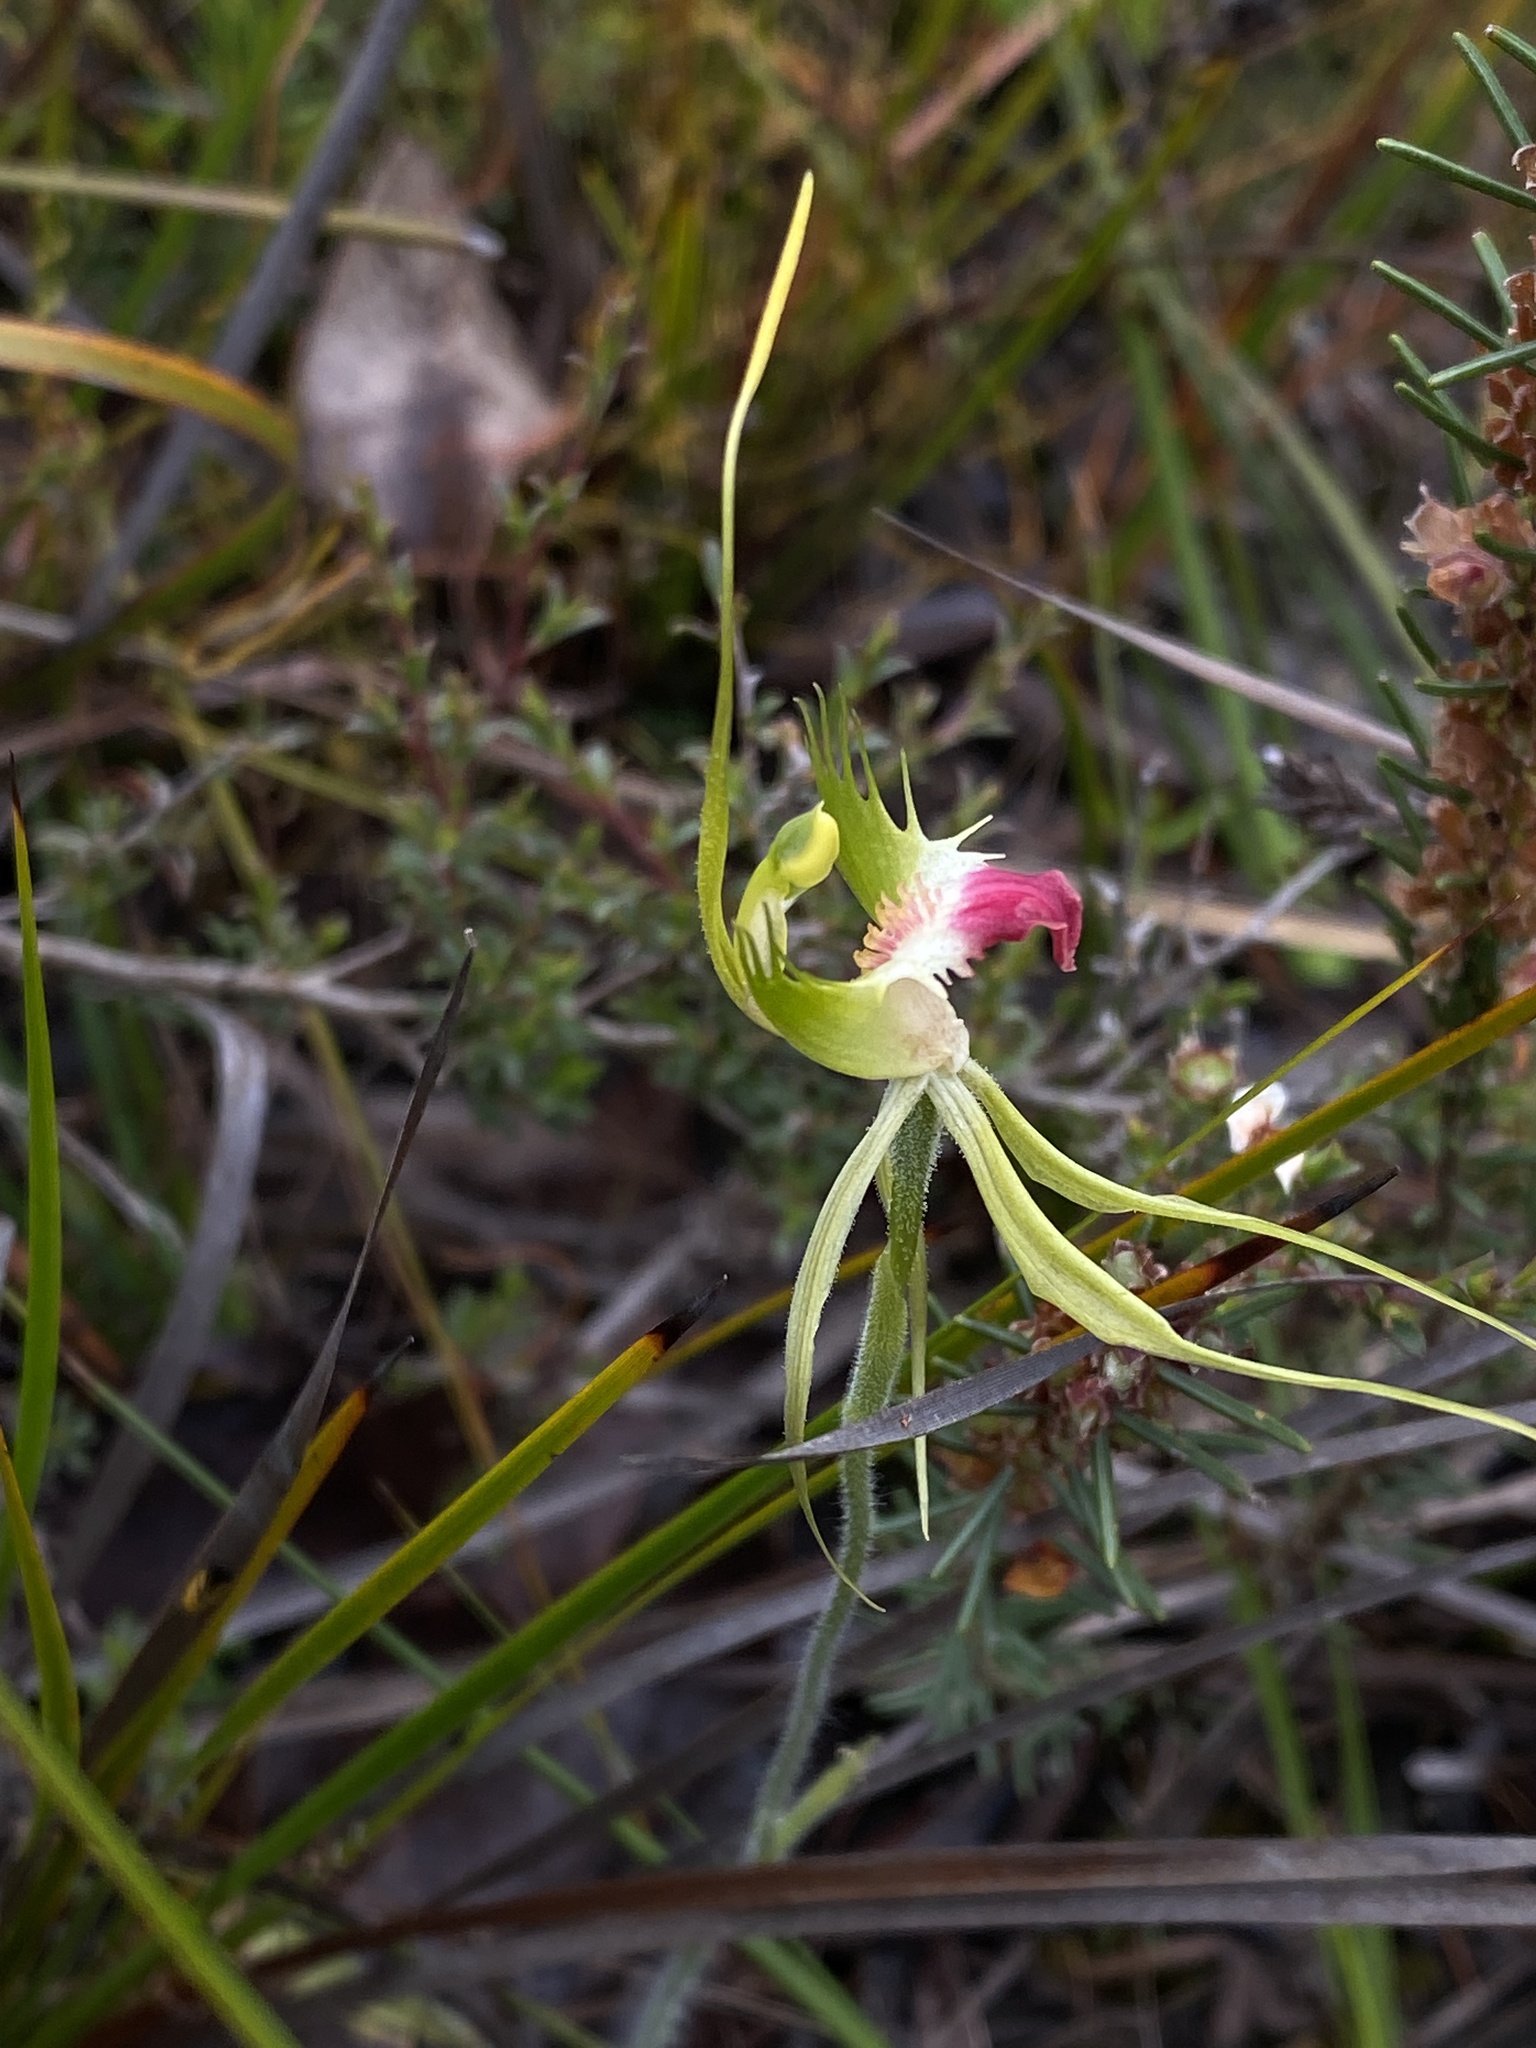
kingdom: Plantae
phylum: Tracheophyta
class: Liliopsida
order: Asparagales
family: Orchidaceae
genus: Caladenia
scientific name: Caladenia tentaculata
